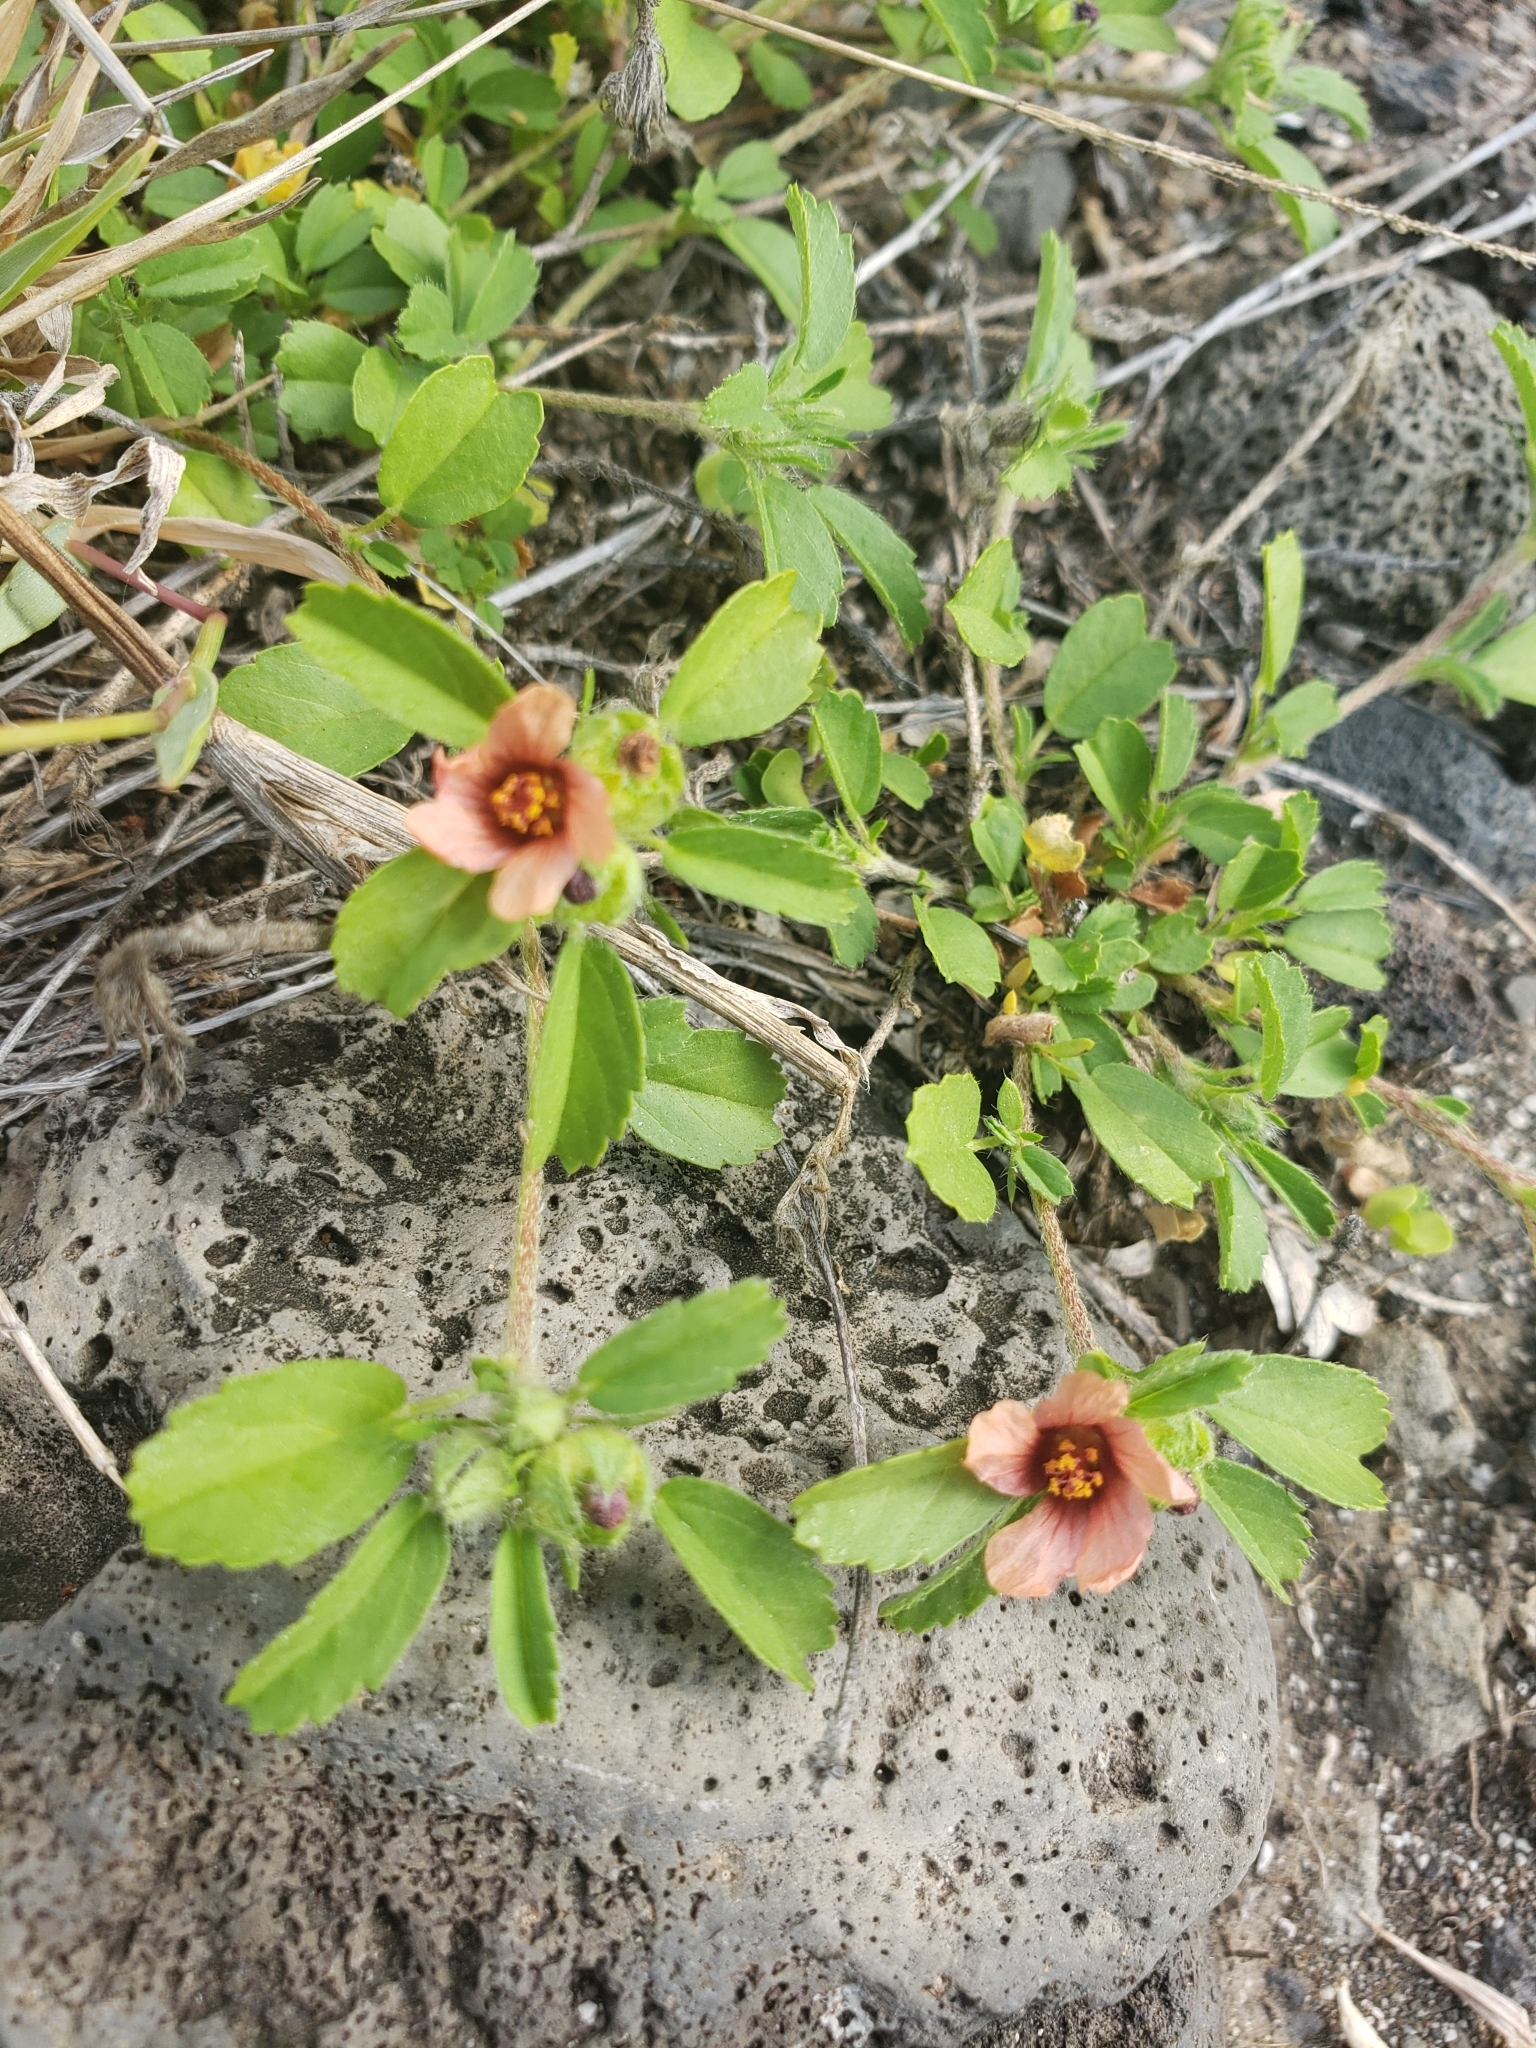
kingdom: Plantae
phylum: Tracheophyta
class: Magnoliopsida
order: Malvales
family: Malvaceae
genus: Sida
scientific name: Sida ciliaris
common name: Bracted fanpetals
